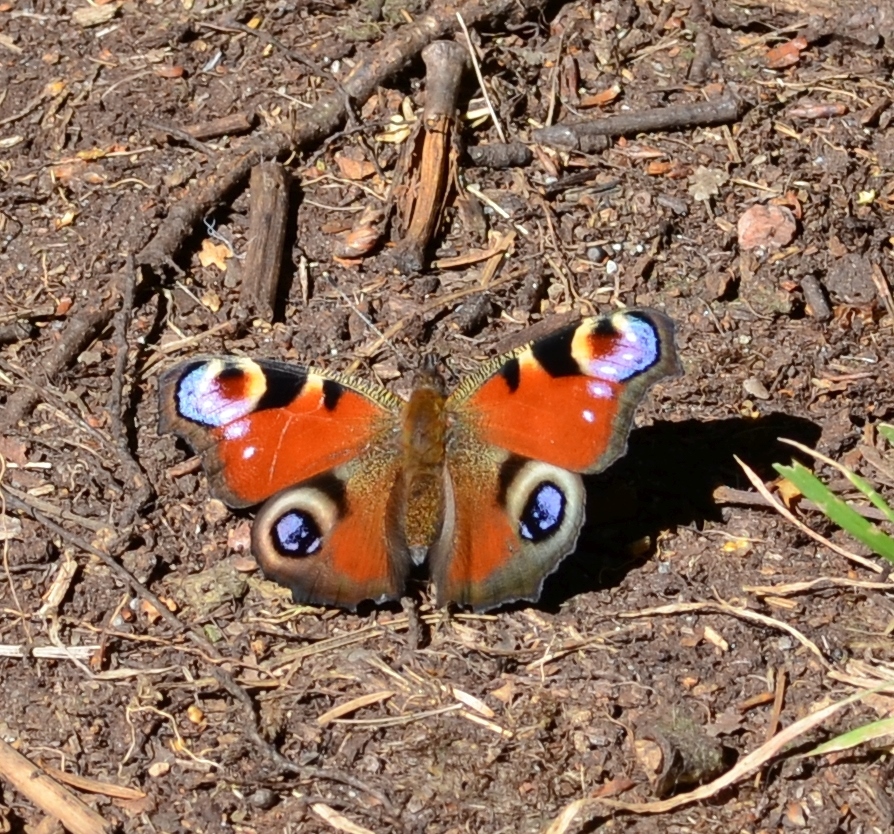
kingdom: Animalia
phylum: Arthropoda
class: Insecta
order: Lepidoptera
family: Nymphalidae
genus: Aglais
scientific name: Aglais io
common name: Peacock
